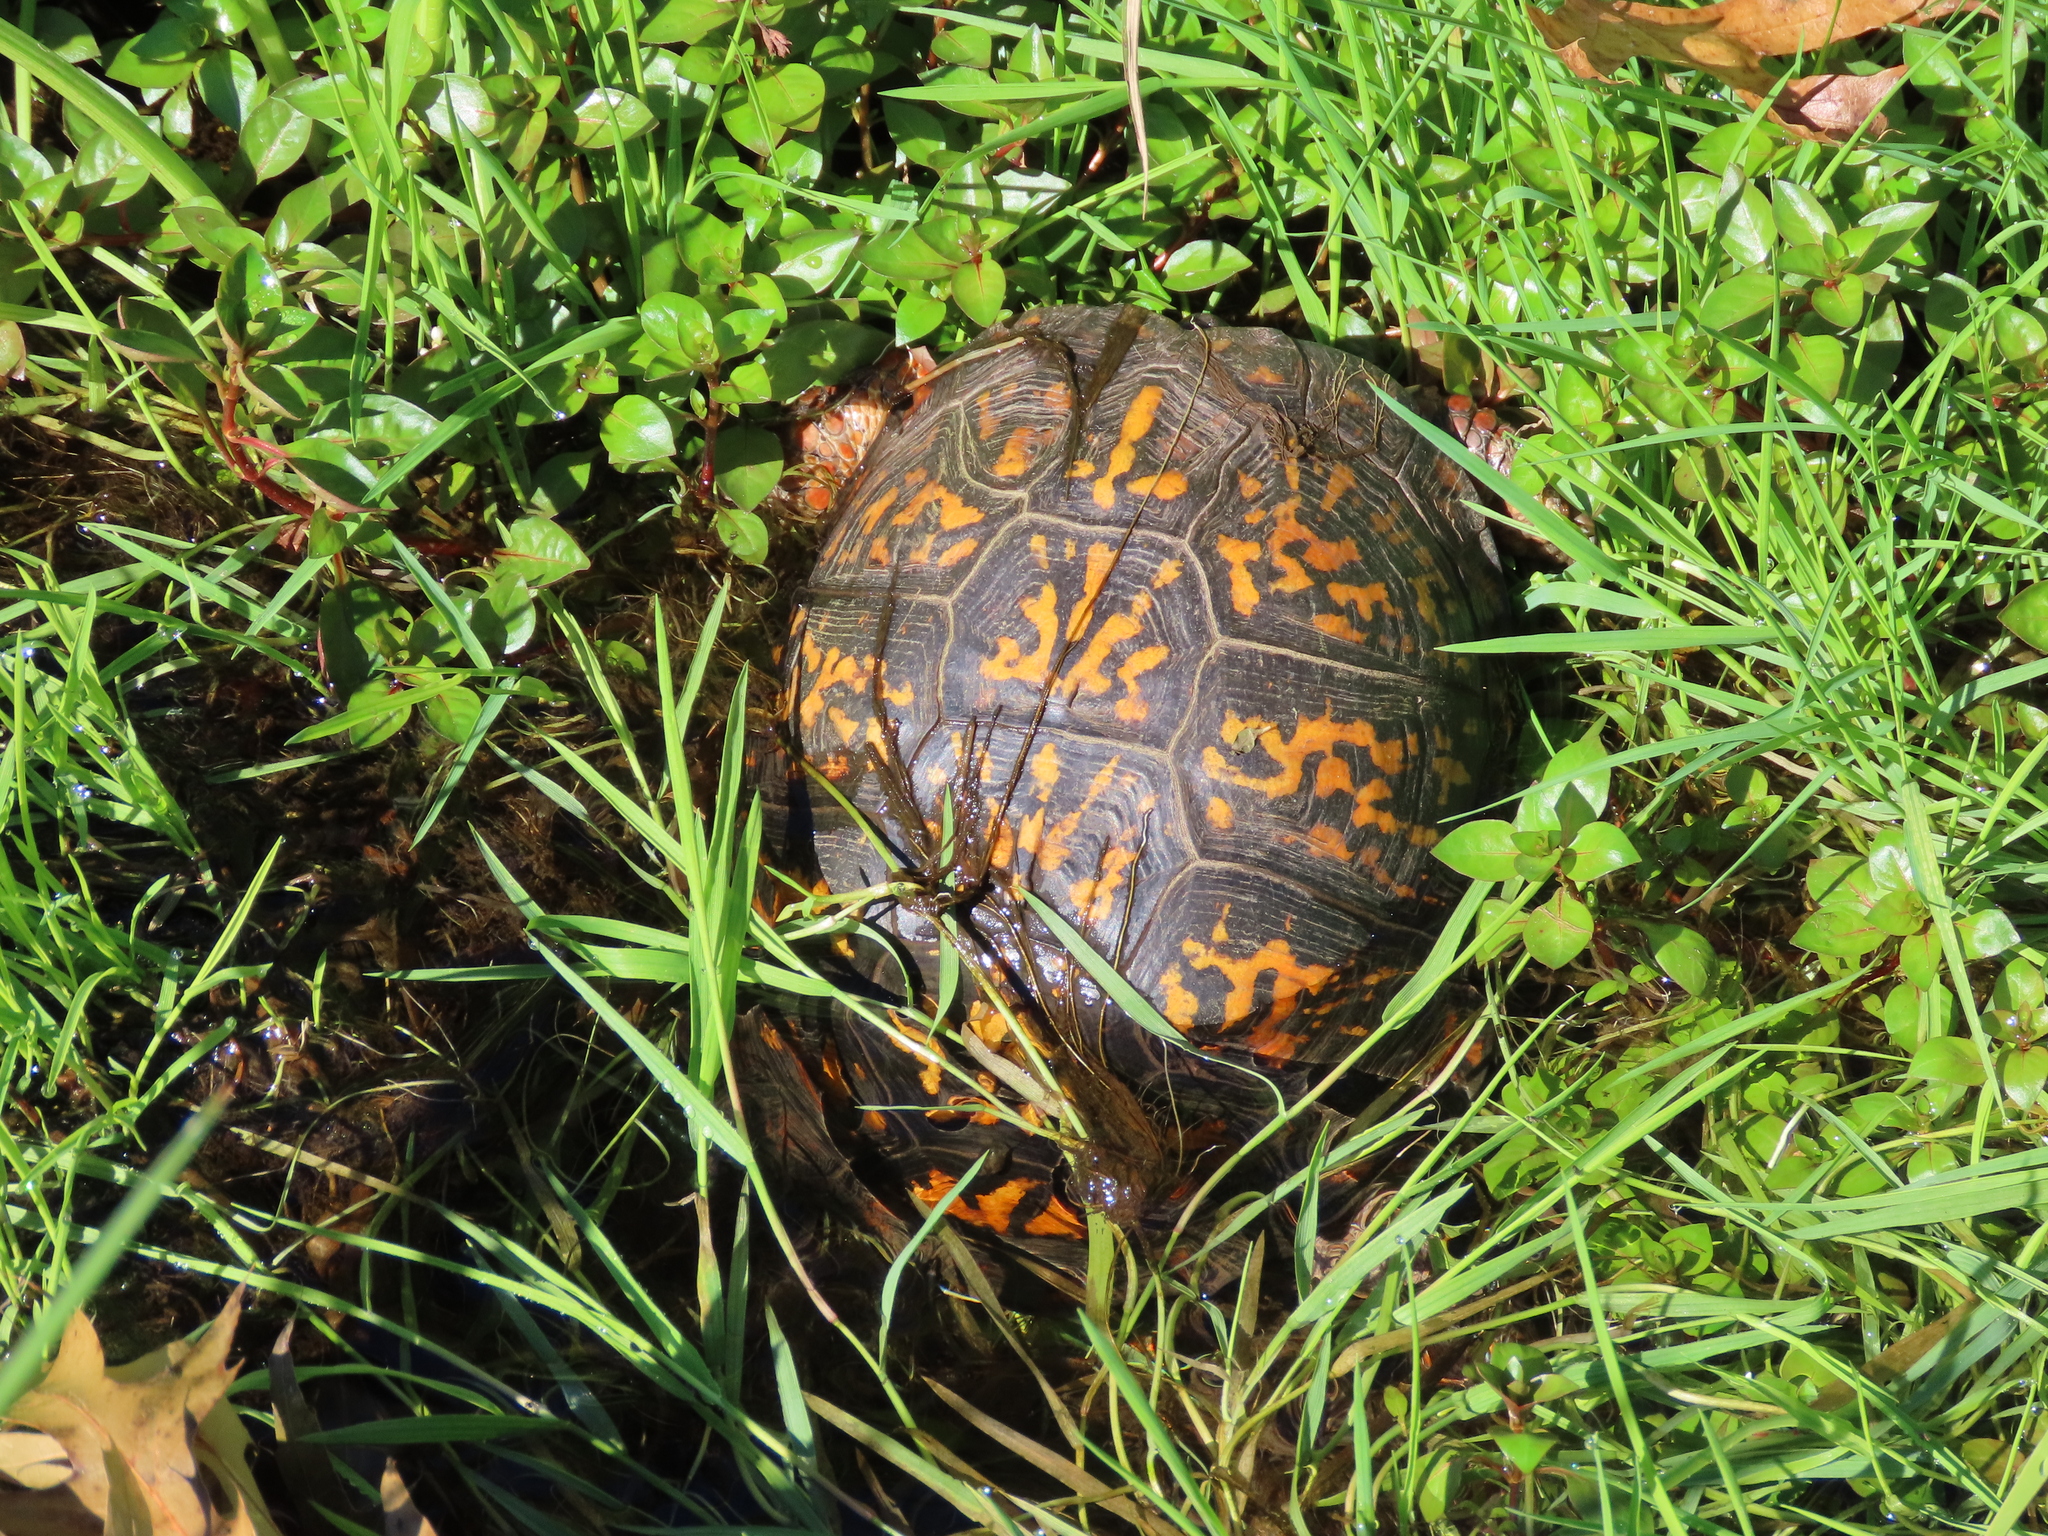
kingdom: Animalia
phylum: Chordata
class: Testudines
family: Emydidae
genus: Terrapene
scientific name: Terrapene carolina
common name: Common box turtle
